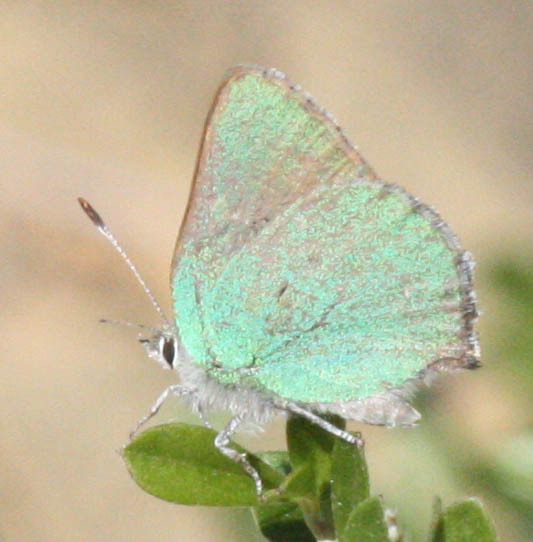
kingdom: Animalia
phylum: Arthropoda
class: Insecta
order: Lepidoptera
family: Lycaenidae
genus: Callophrys
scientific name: Callophrys dumetorum
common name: Bramble hairstreak
